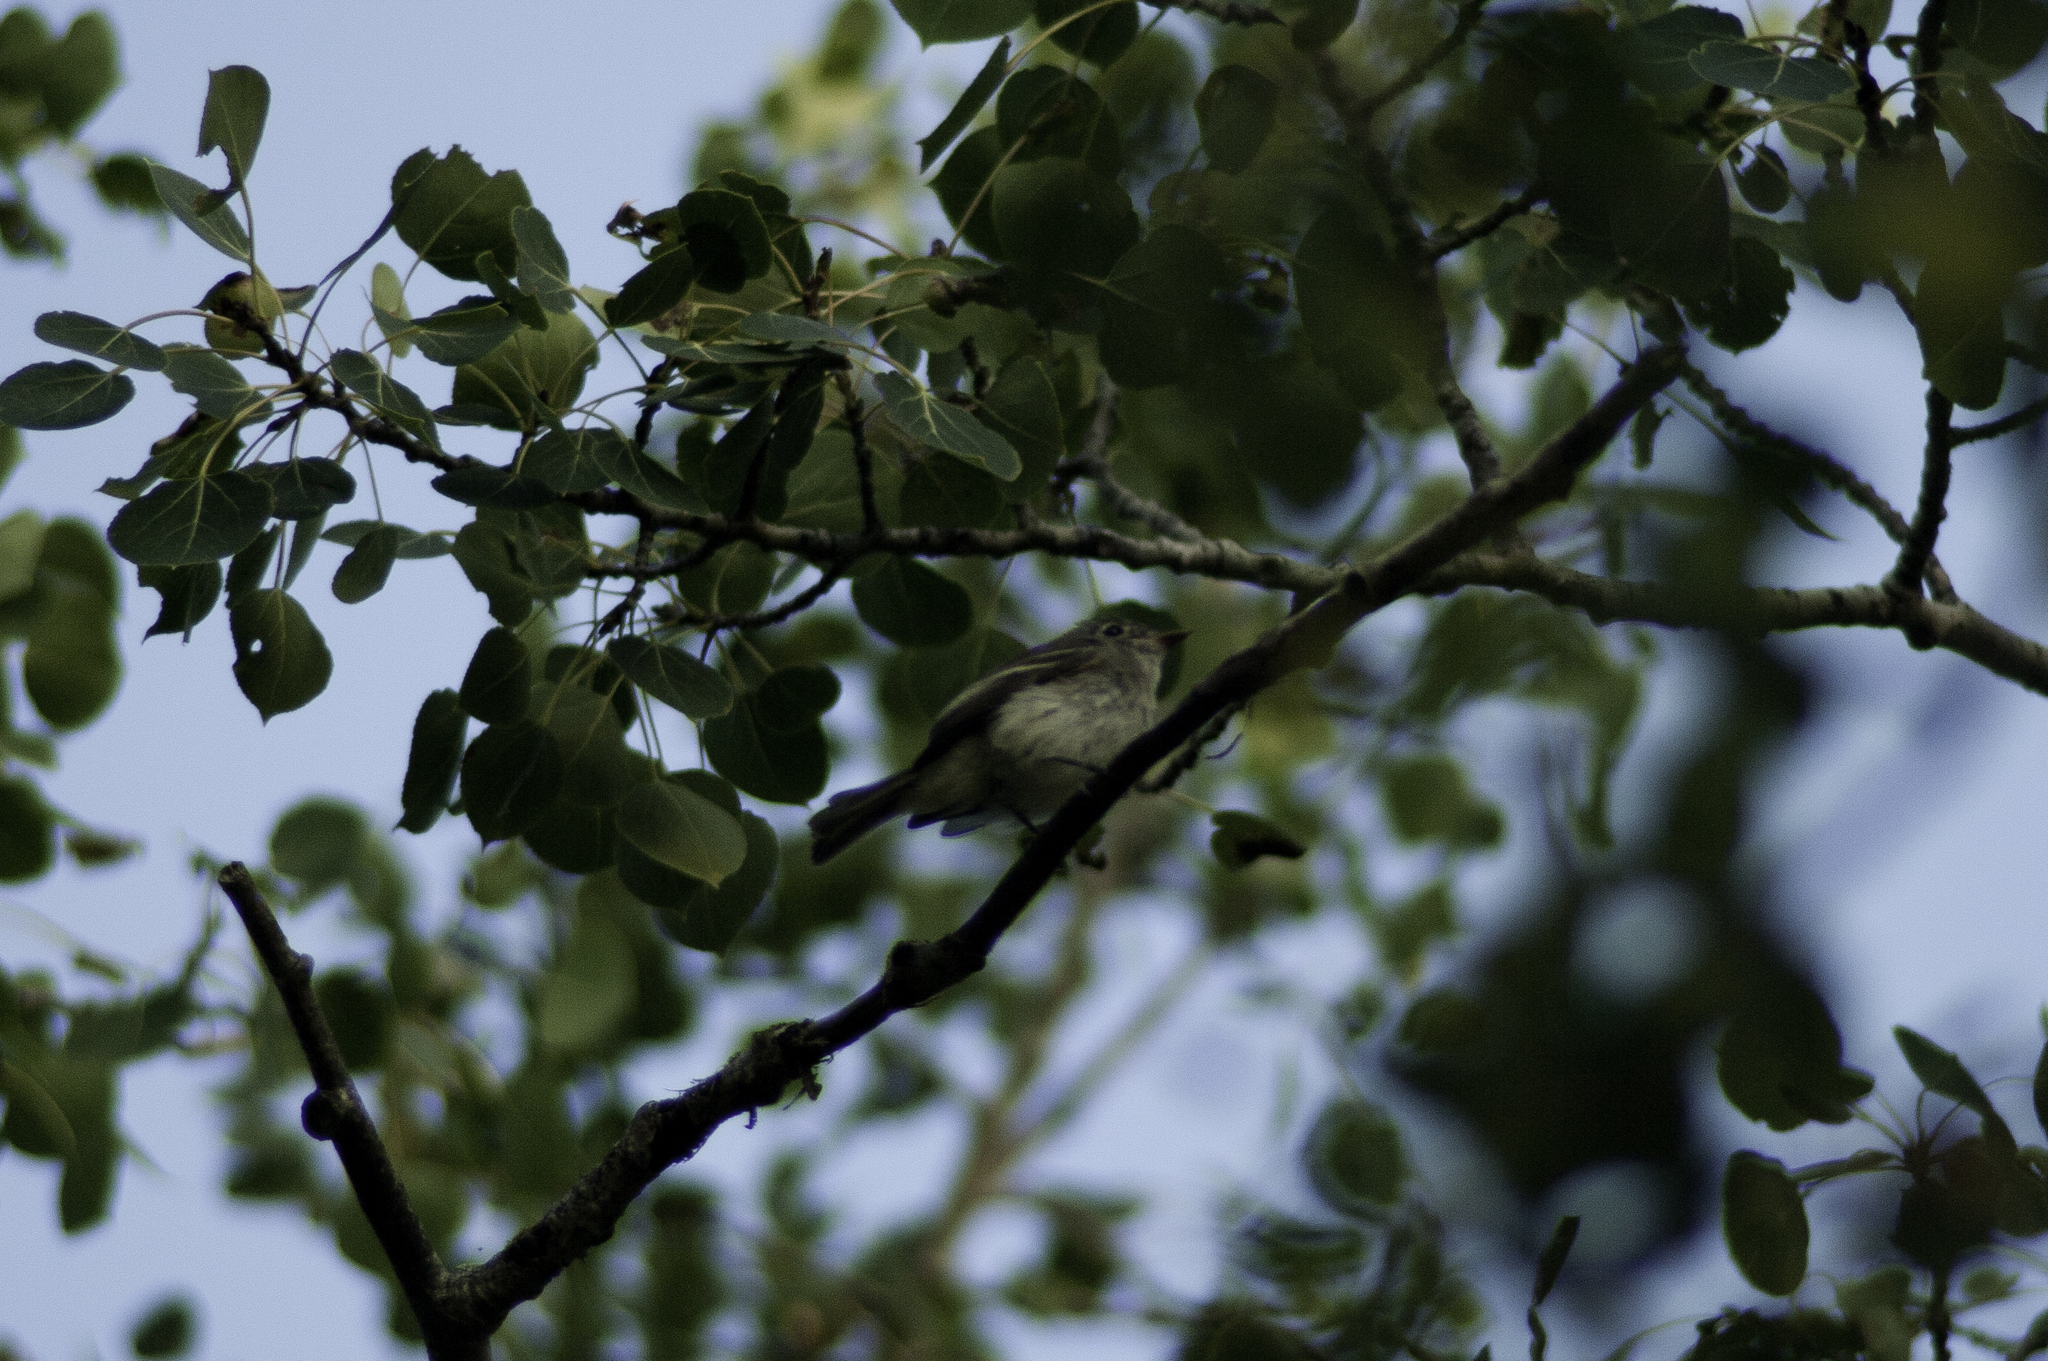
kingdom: Animalia
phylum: Chordata
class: Aves
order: Passeriformes
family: Tyrannidae
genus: Empidonax
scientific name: Empidonax minimus
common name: Least flycatcher
